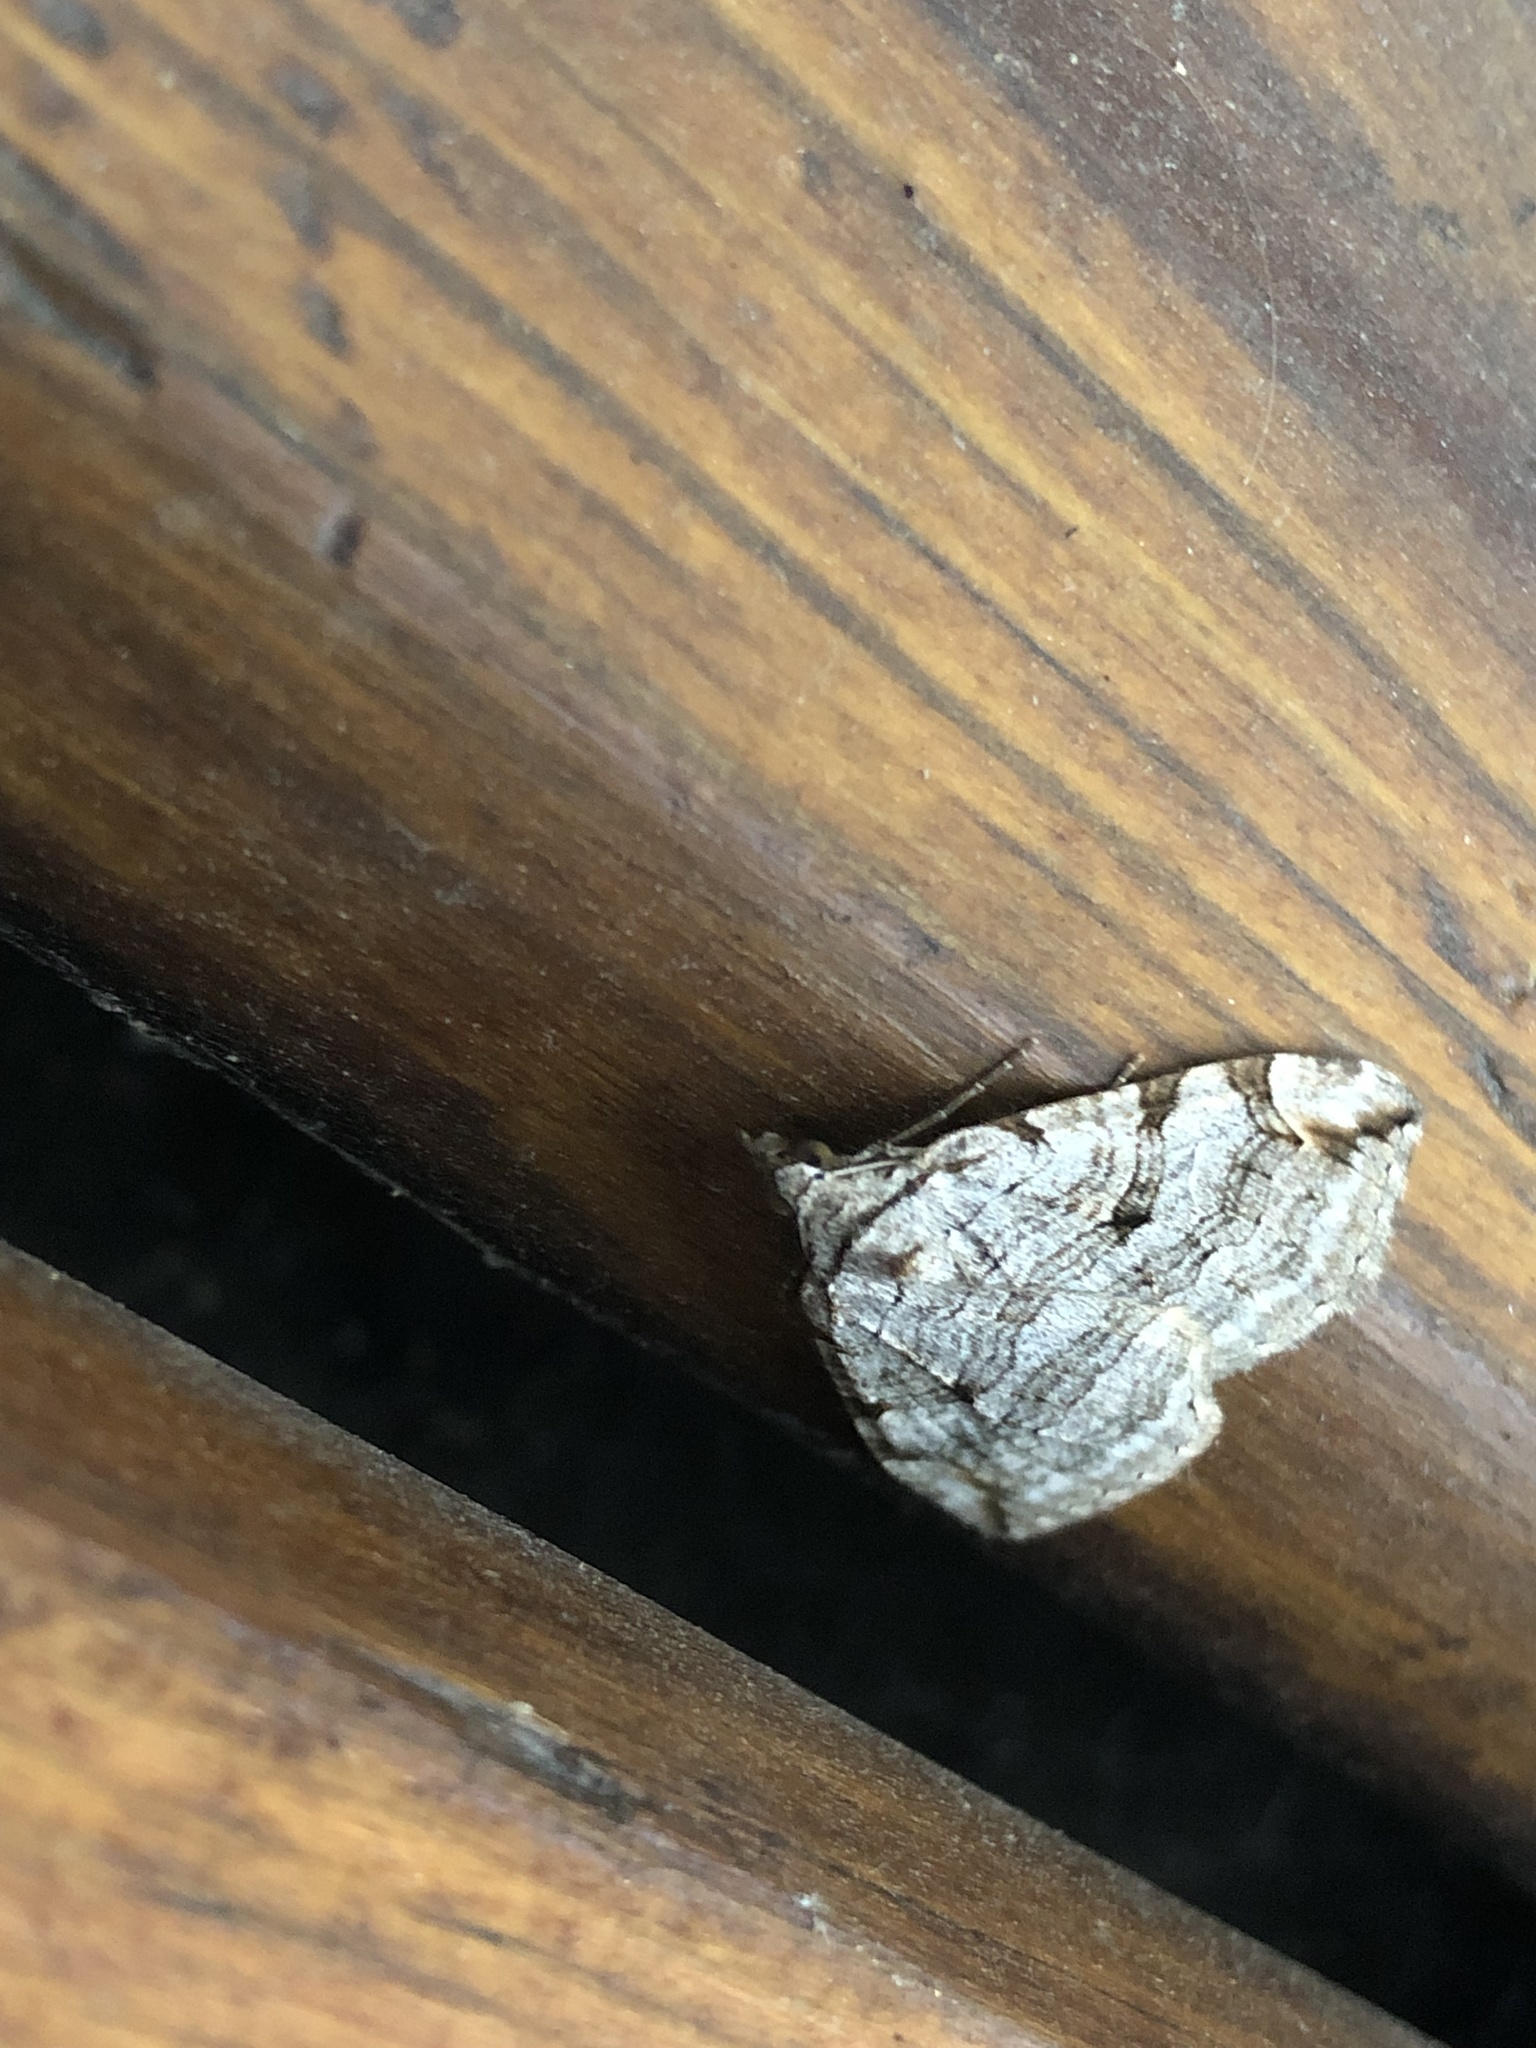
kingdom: Animalia
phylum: Arthropoda
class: Insecta
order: Lepidoptera
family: Geometridae
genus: Aplocera
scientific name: Aplocera plagiata
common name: Treble-bar
